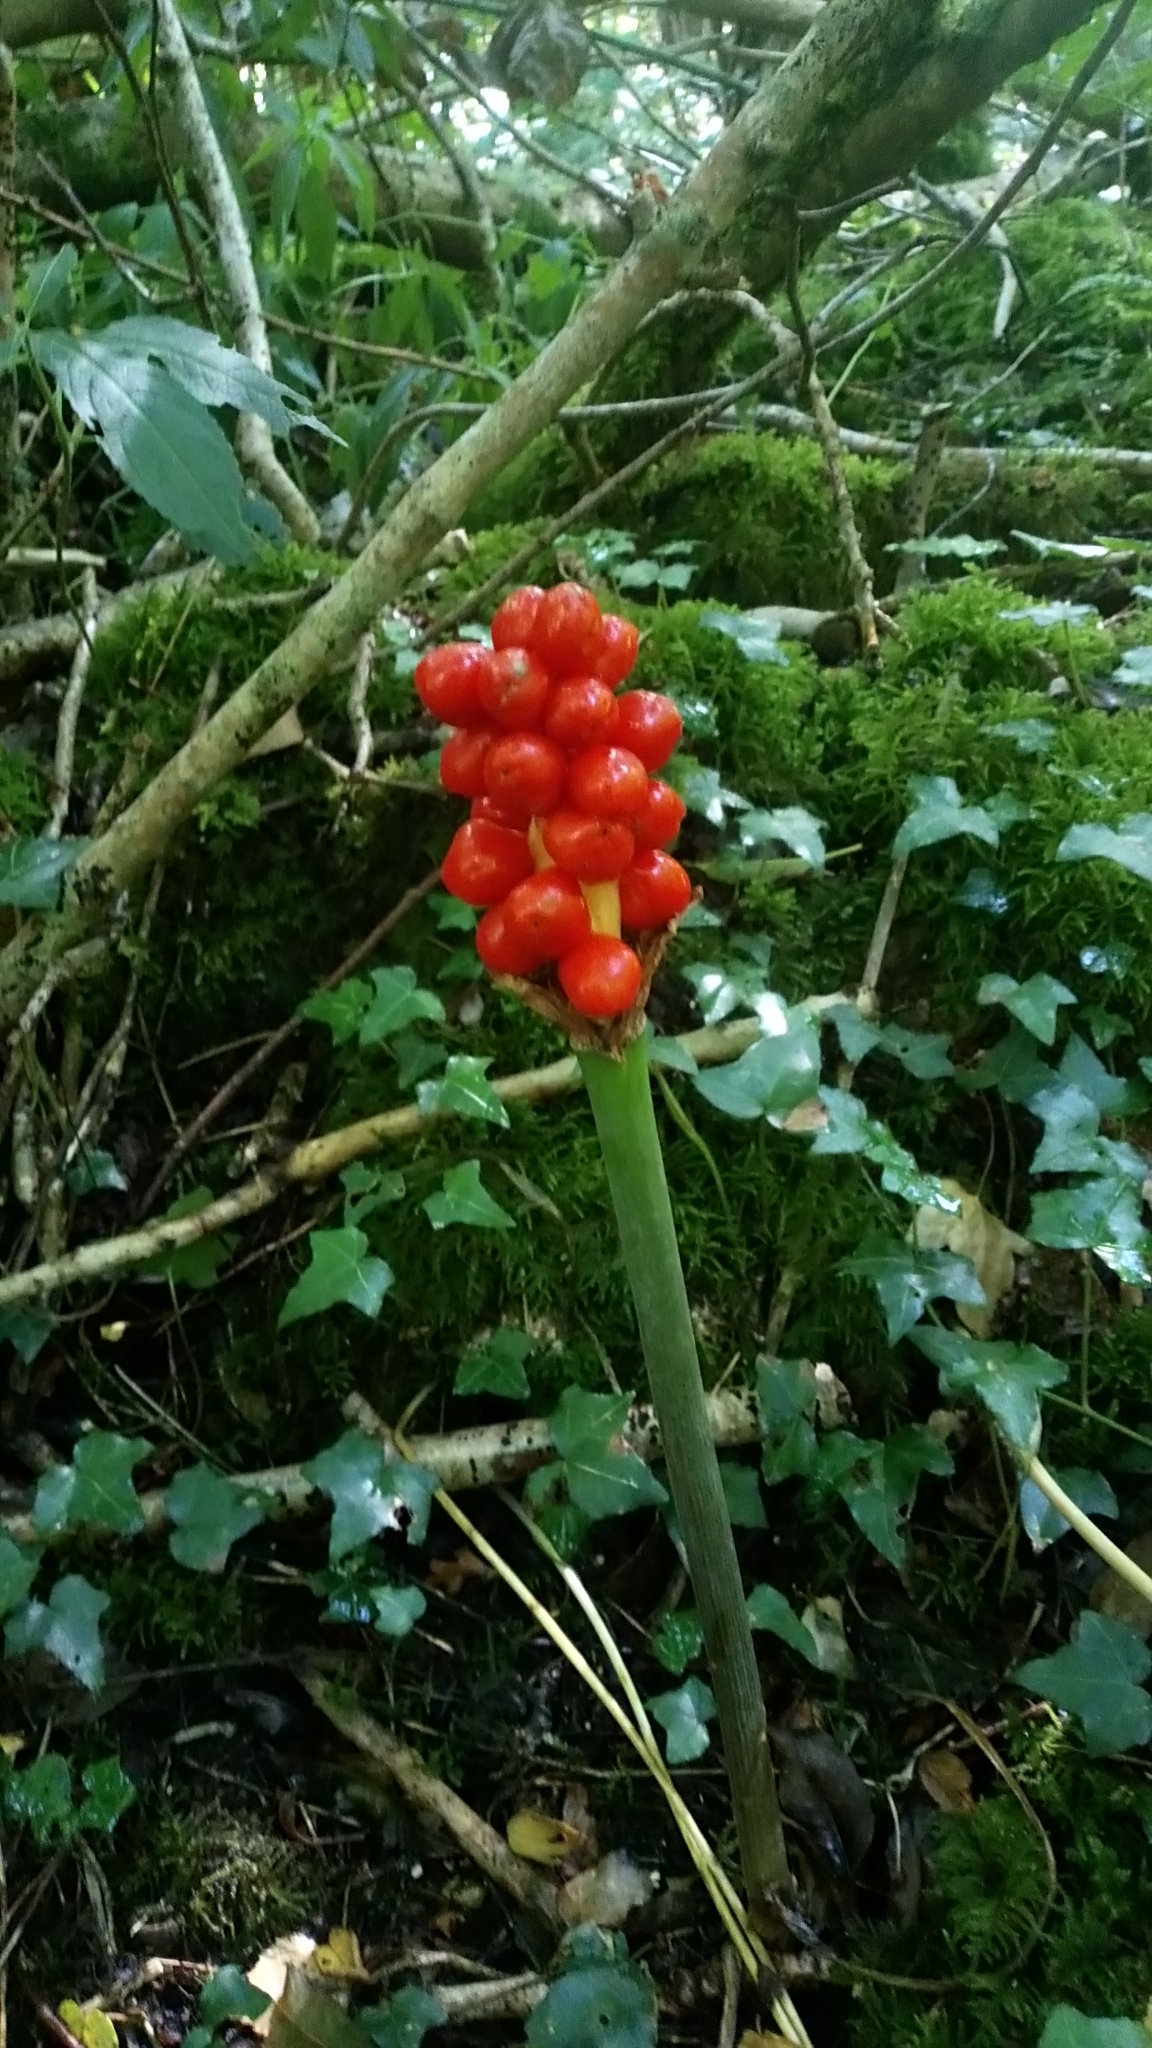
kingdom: Plantae
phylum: Tracheophyta
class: Liliopsida
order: Alismatales
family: Araceae
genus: Arum
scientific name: Arum maculatum
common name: Lords-and-ladies
